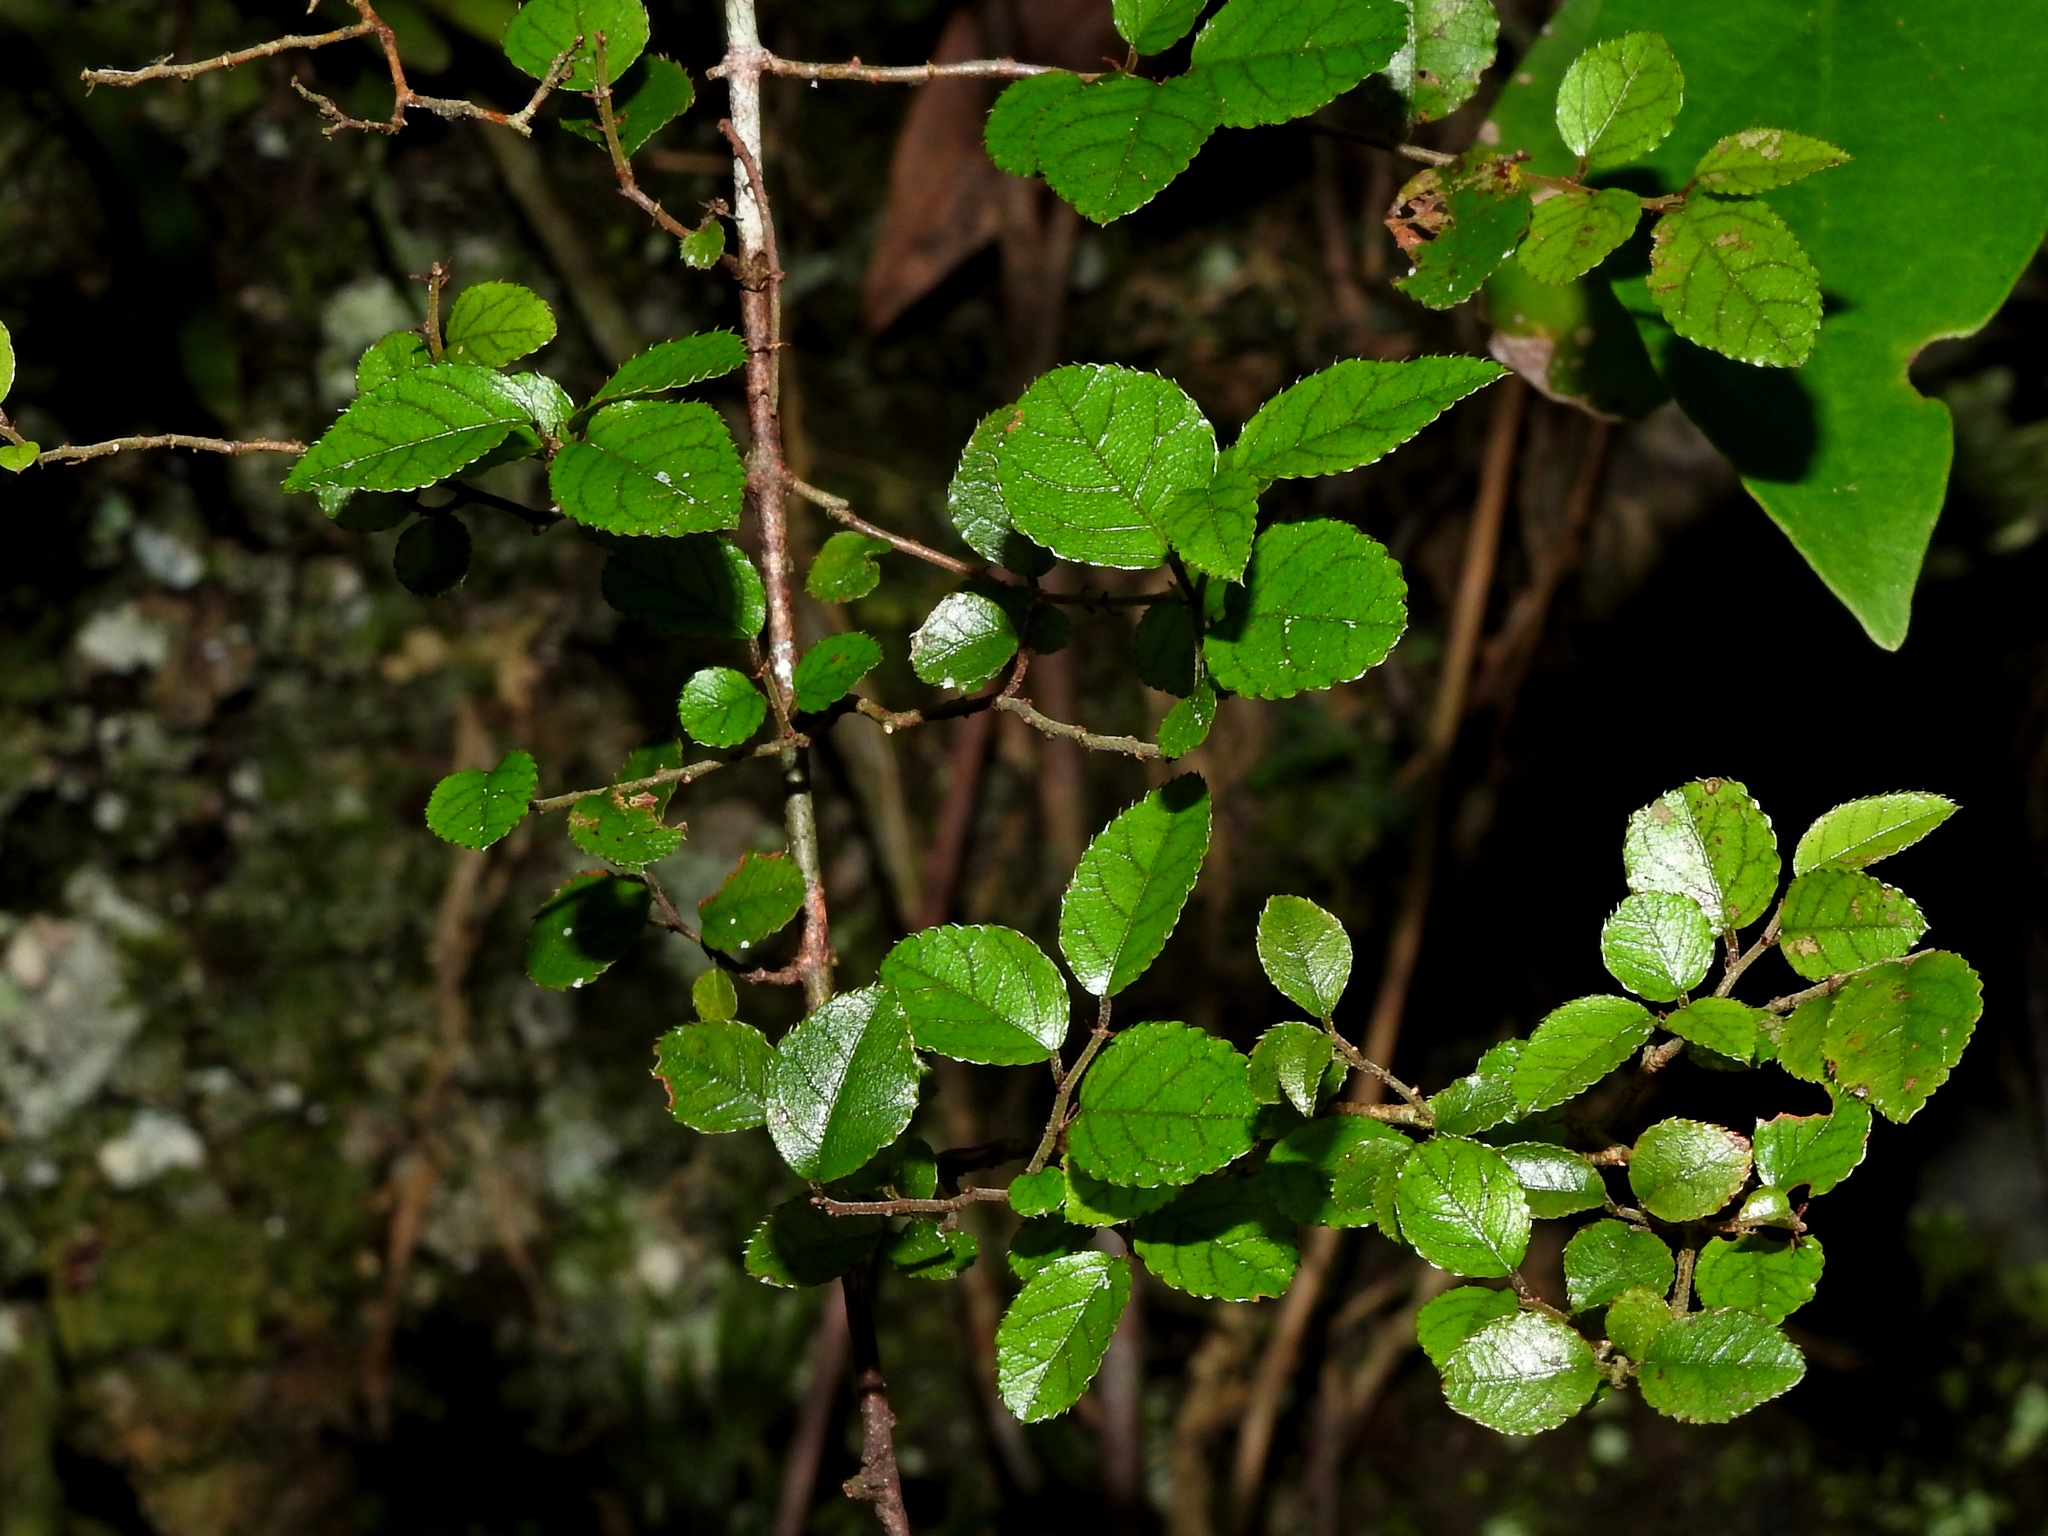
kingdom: Plantae
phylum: Tracheophyta
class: Magnoliopsida
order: Rosales
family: Rhamnaceae
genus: Sageretia
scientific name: Sageretia thea
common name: Pauper's-tea
